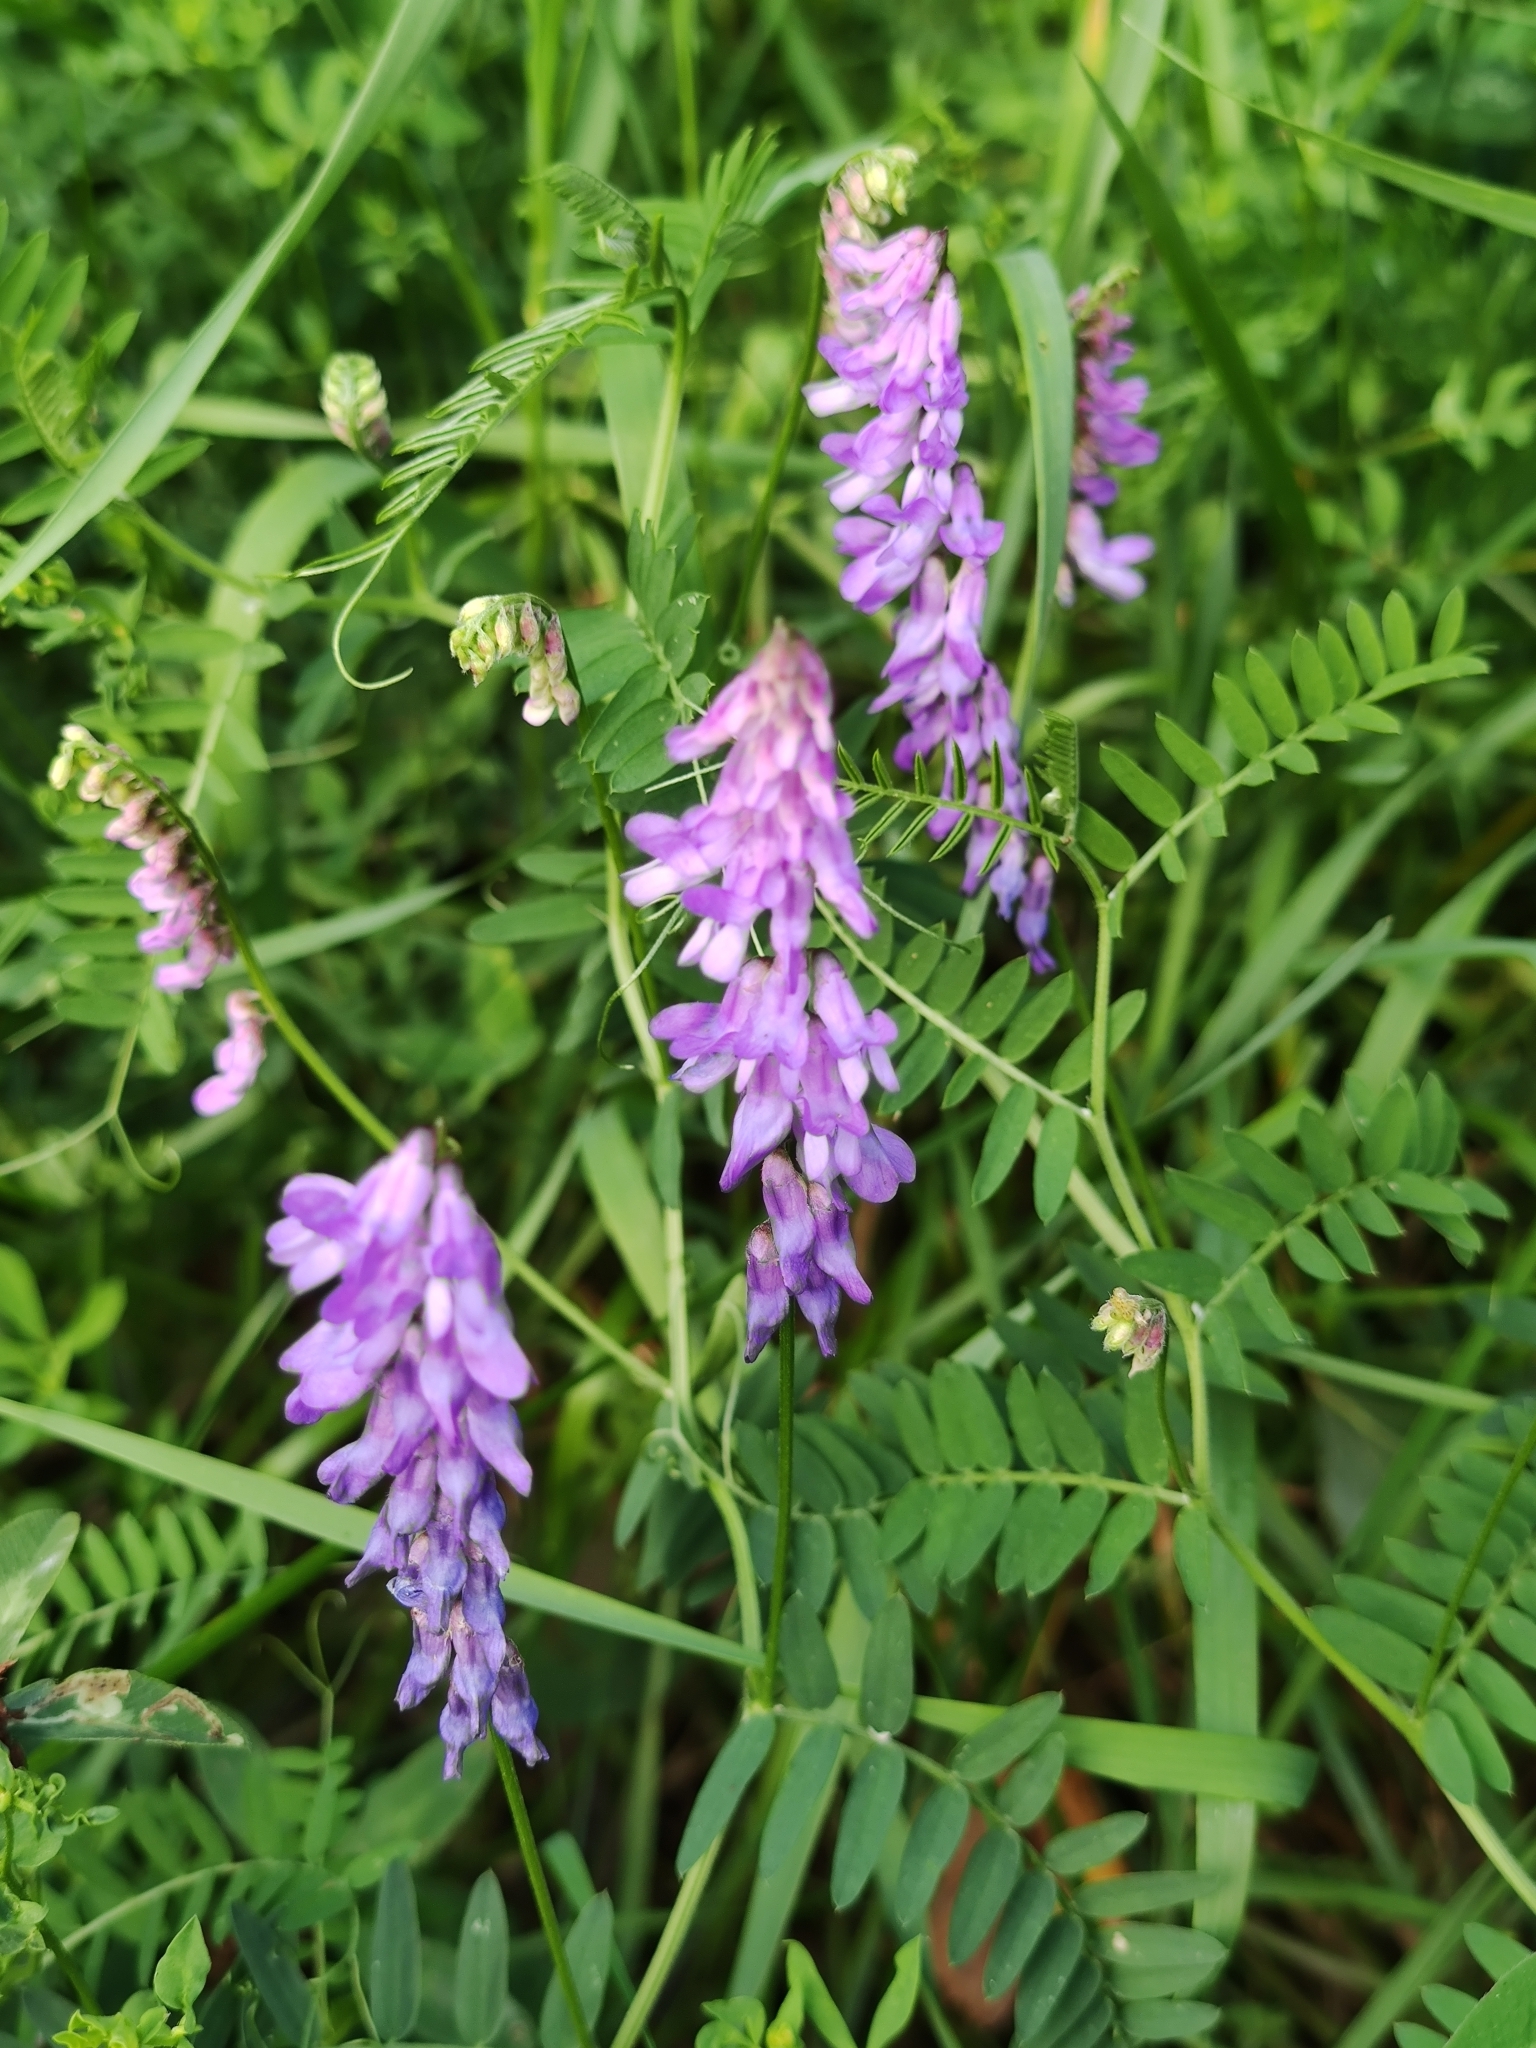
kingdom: Plantae
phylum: Tracheophyta
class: Magnoliopsida
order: Fabales
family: Fabaceae
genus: Vicia
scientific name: Vicia cracca
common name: Bird vetch
